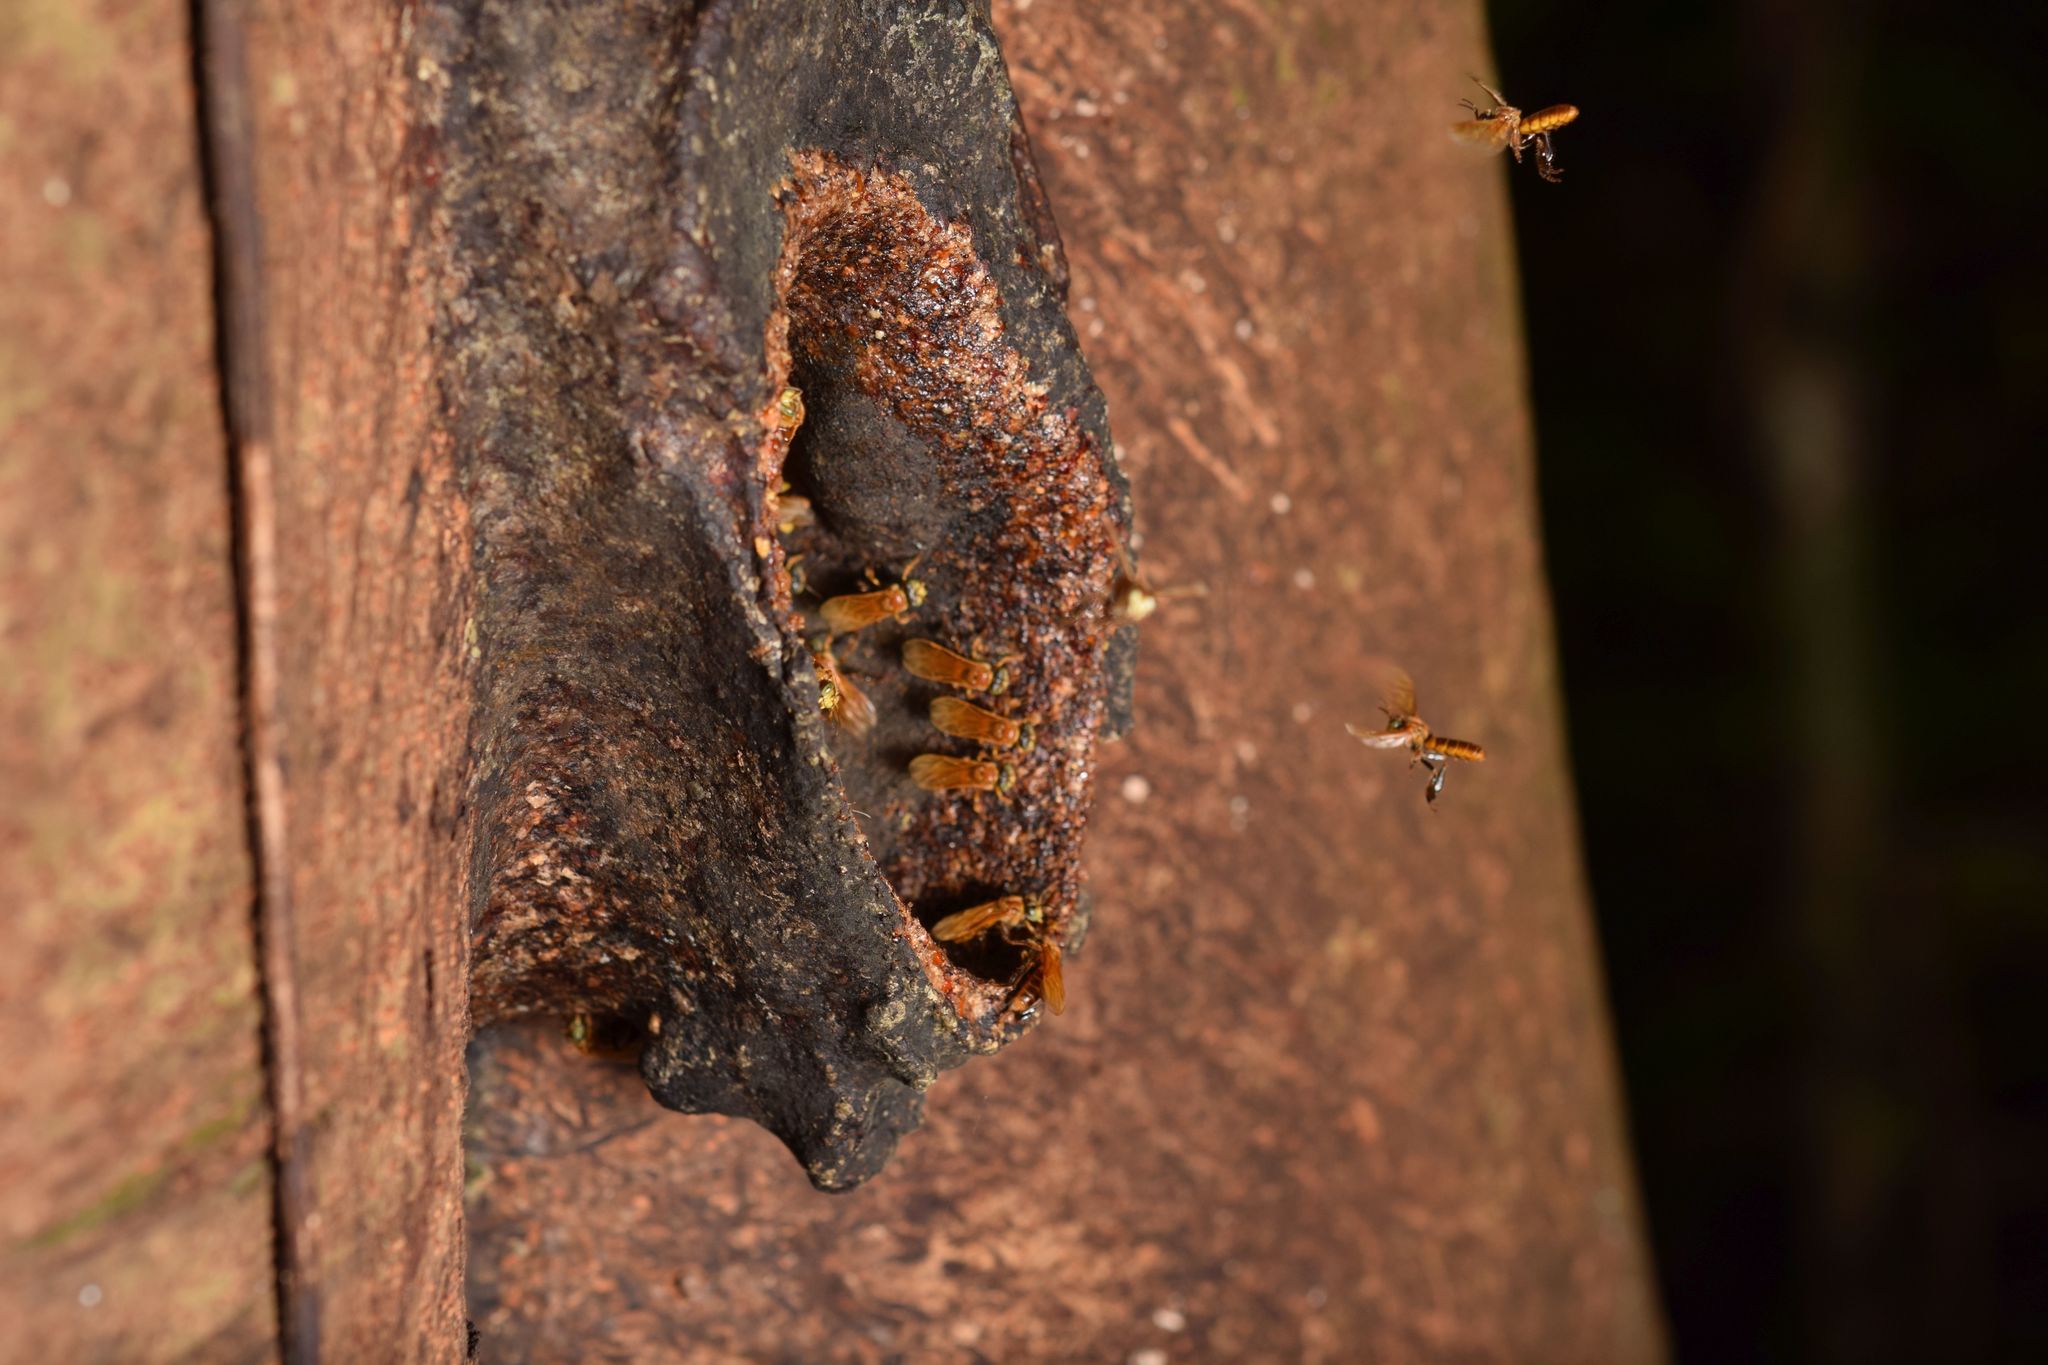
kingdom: Animalia
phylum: Arthropoda
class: Insecta
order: Hymenoptera
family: Apidae
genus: Ptilotrigona
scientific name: Ptilotrigona occidentalis
